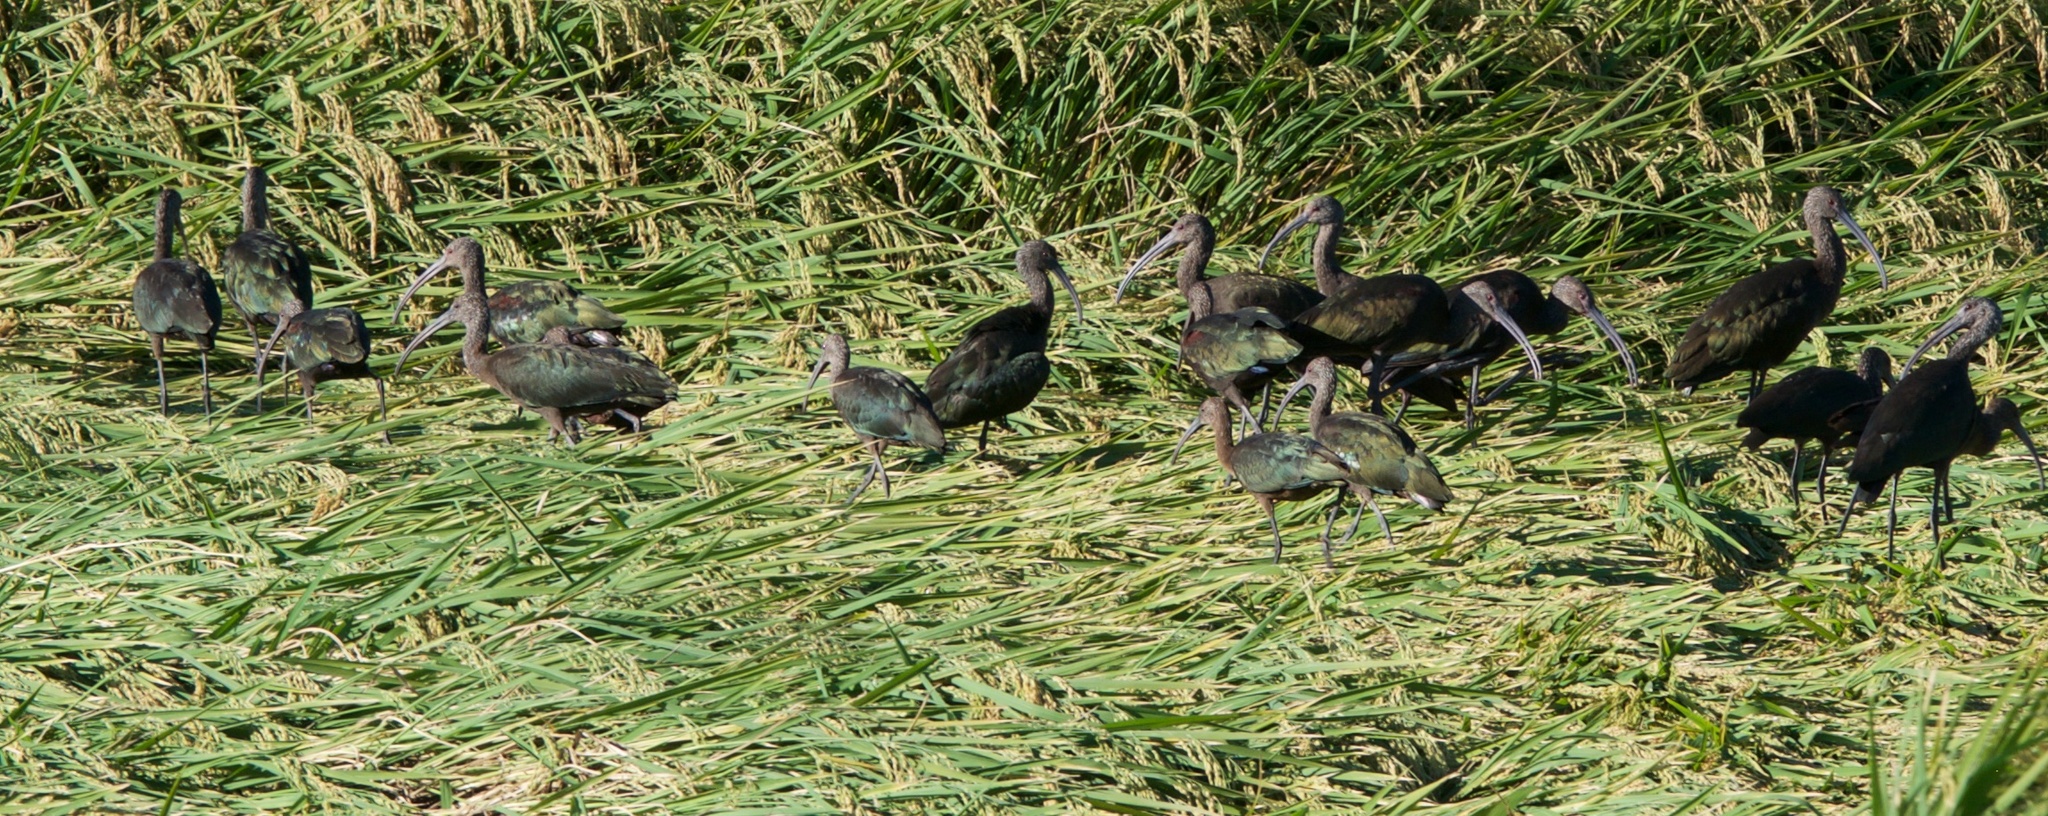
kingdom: Animalia
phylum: Chordata
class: Aves
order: Pelecaniformes
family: Threskiornithidae
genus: Plegadis
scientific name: Plegadis chihi
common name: White-faced ibis
